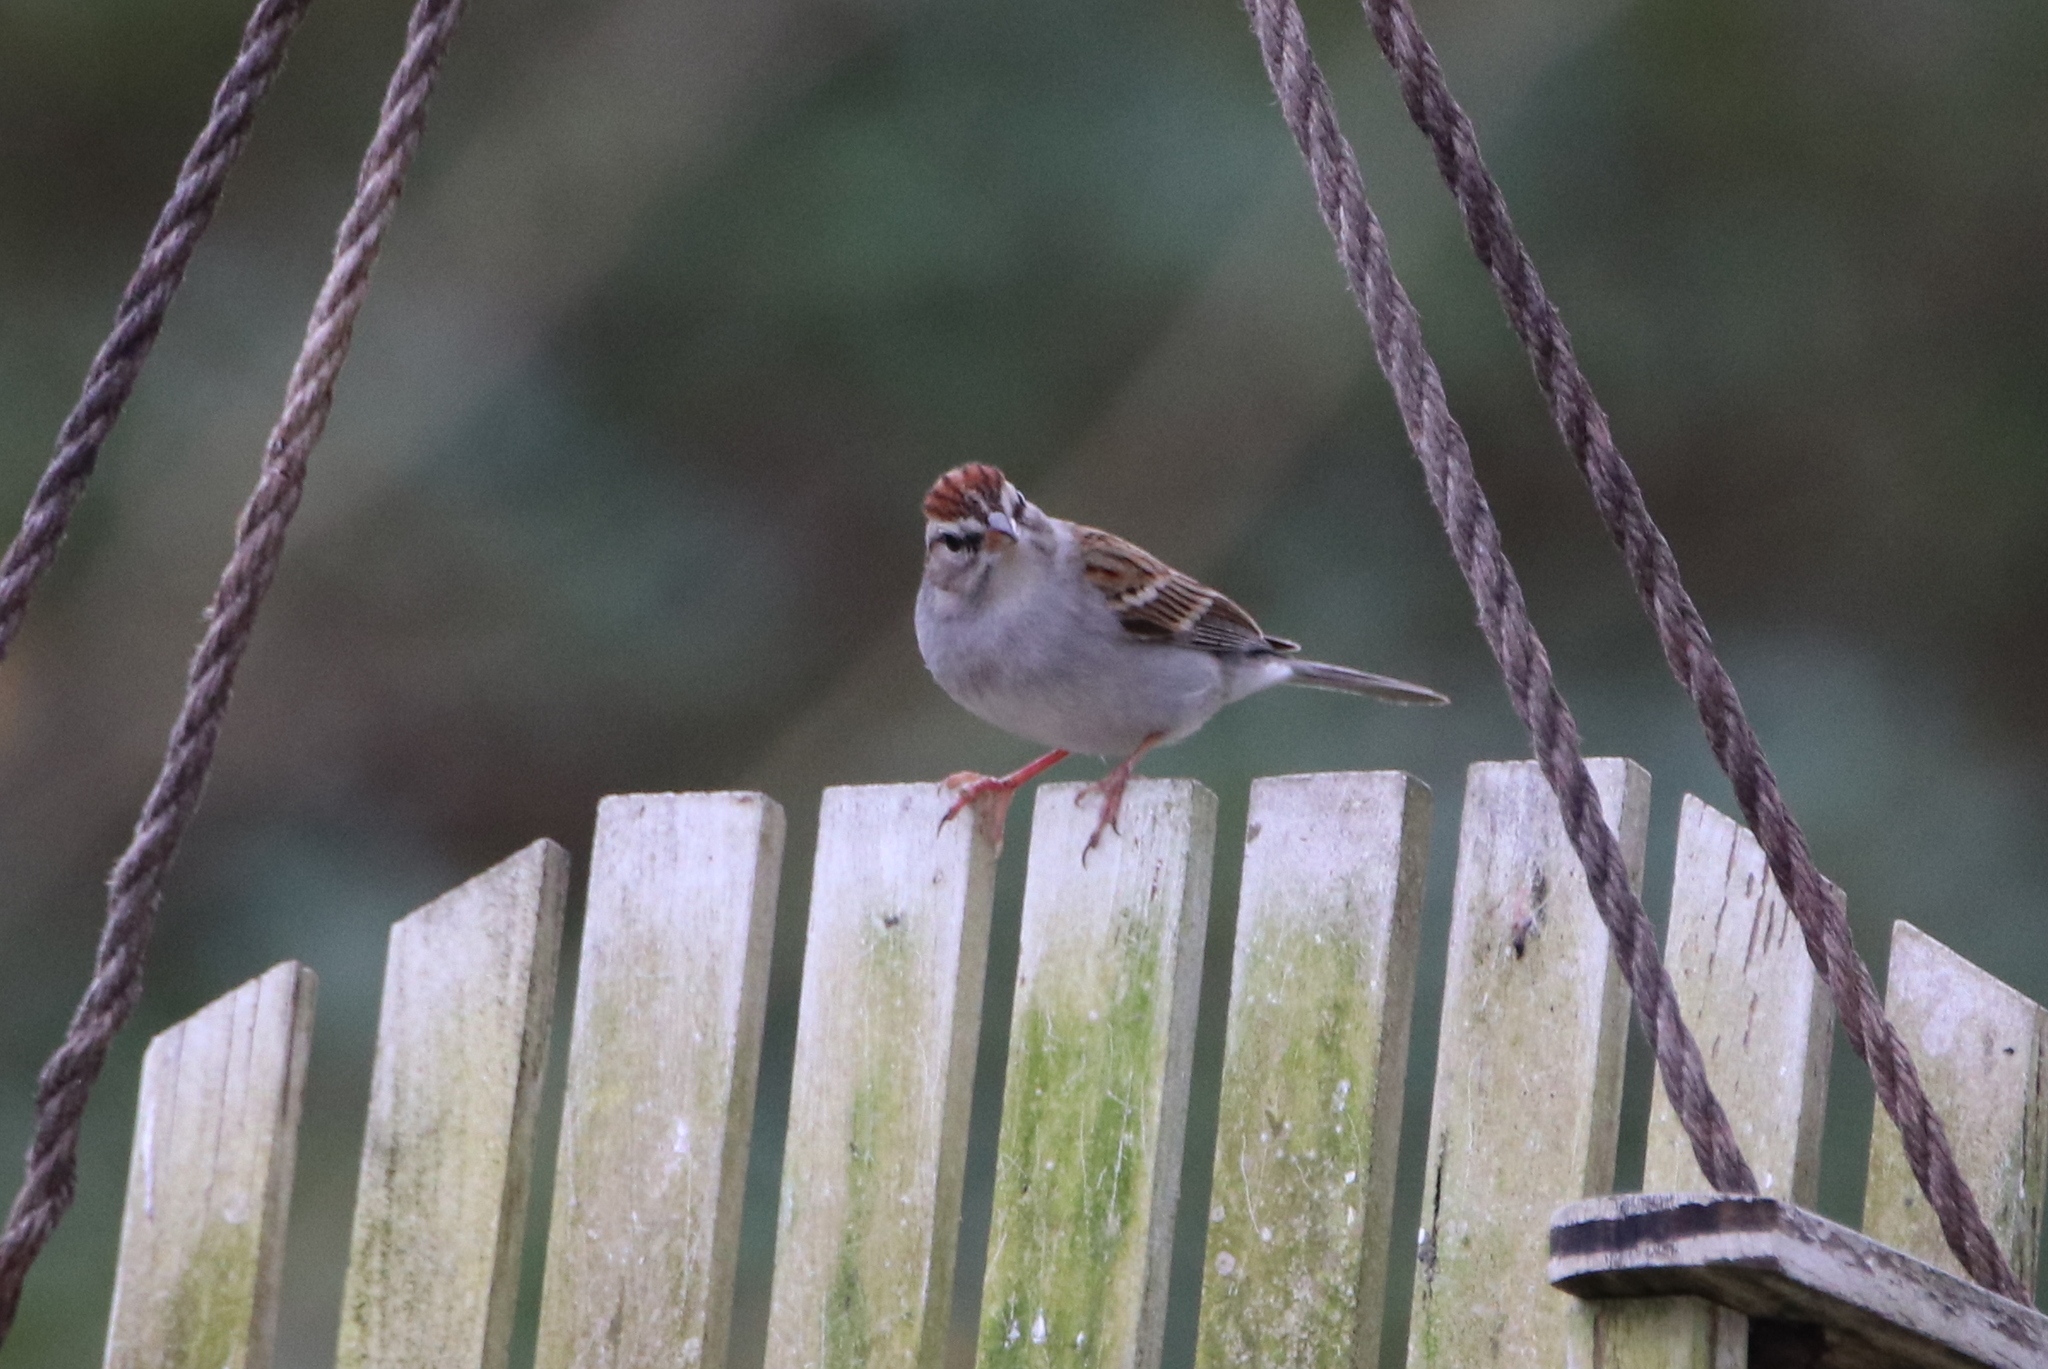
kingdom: Animalia
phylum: Chordata
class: Aves
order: Passeriformes
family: Passerellidae
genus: Spizella
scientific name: Spizella passerina
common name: Chipping sparrow
